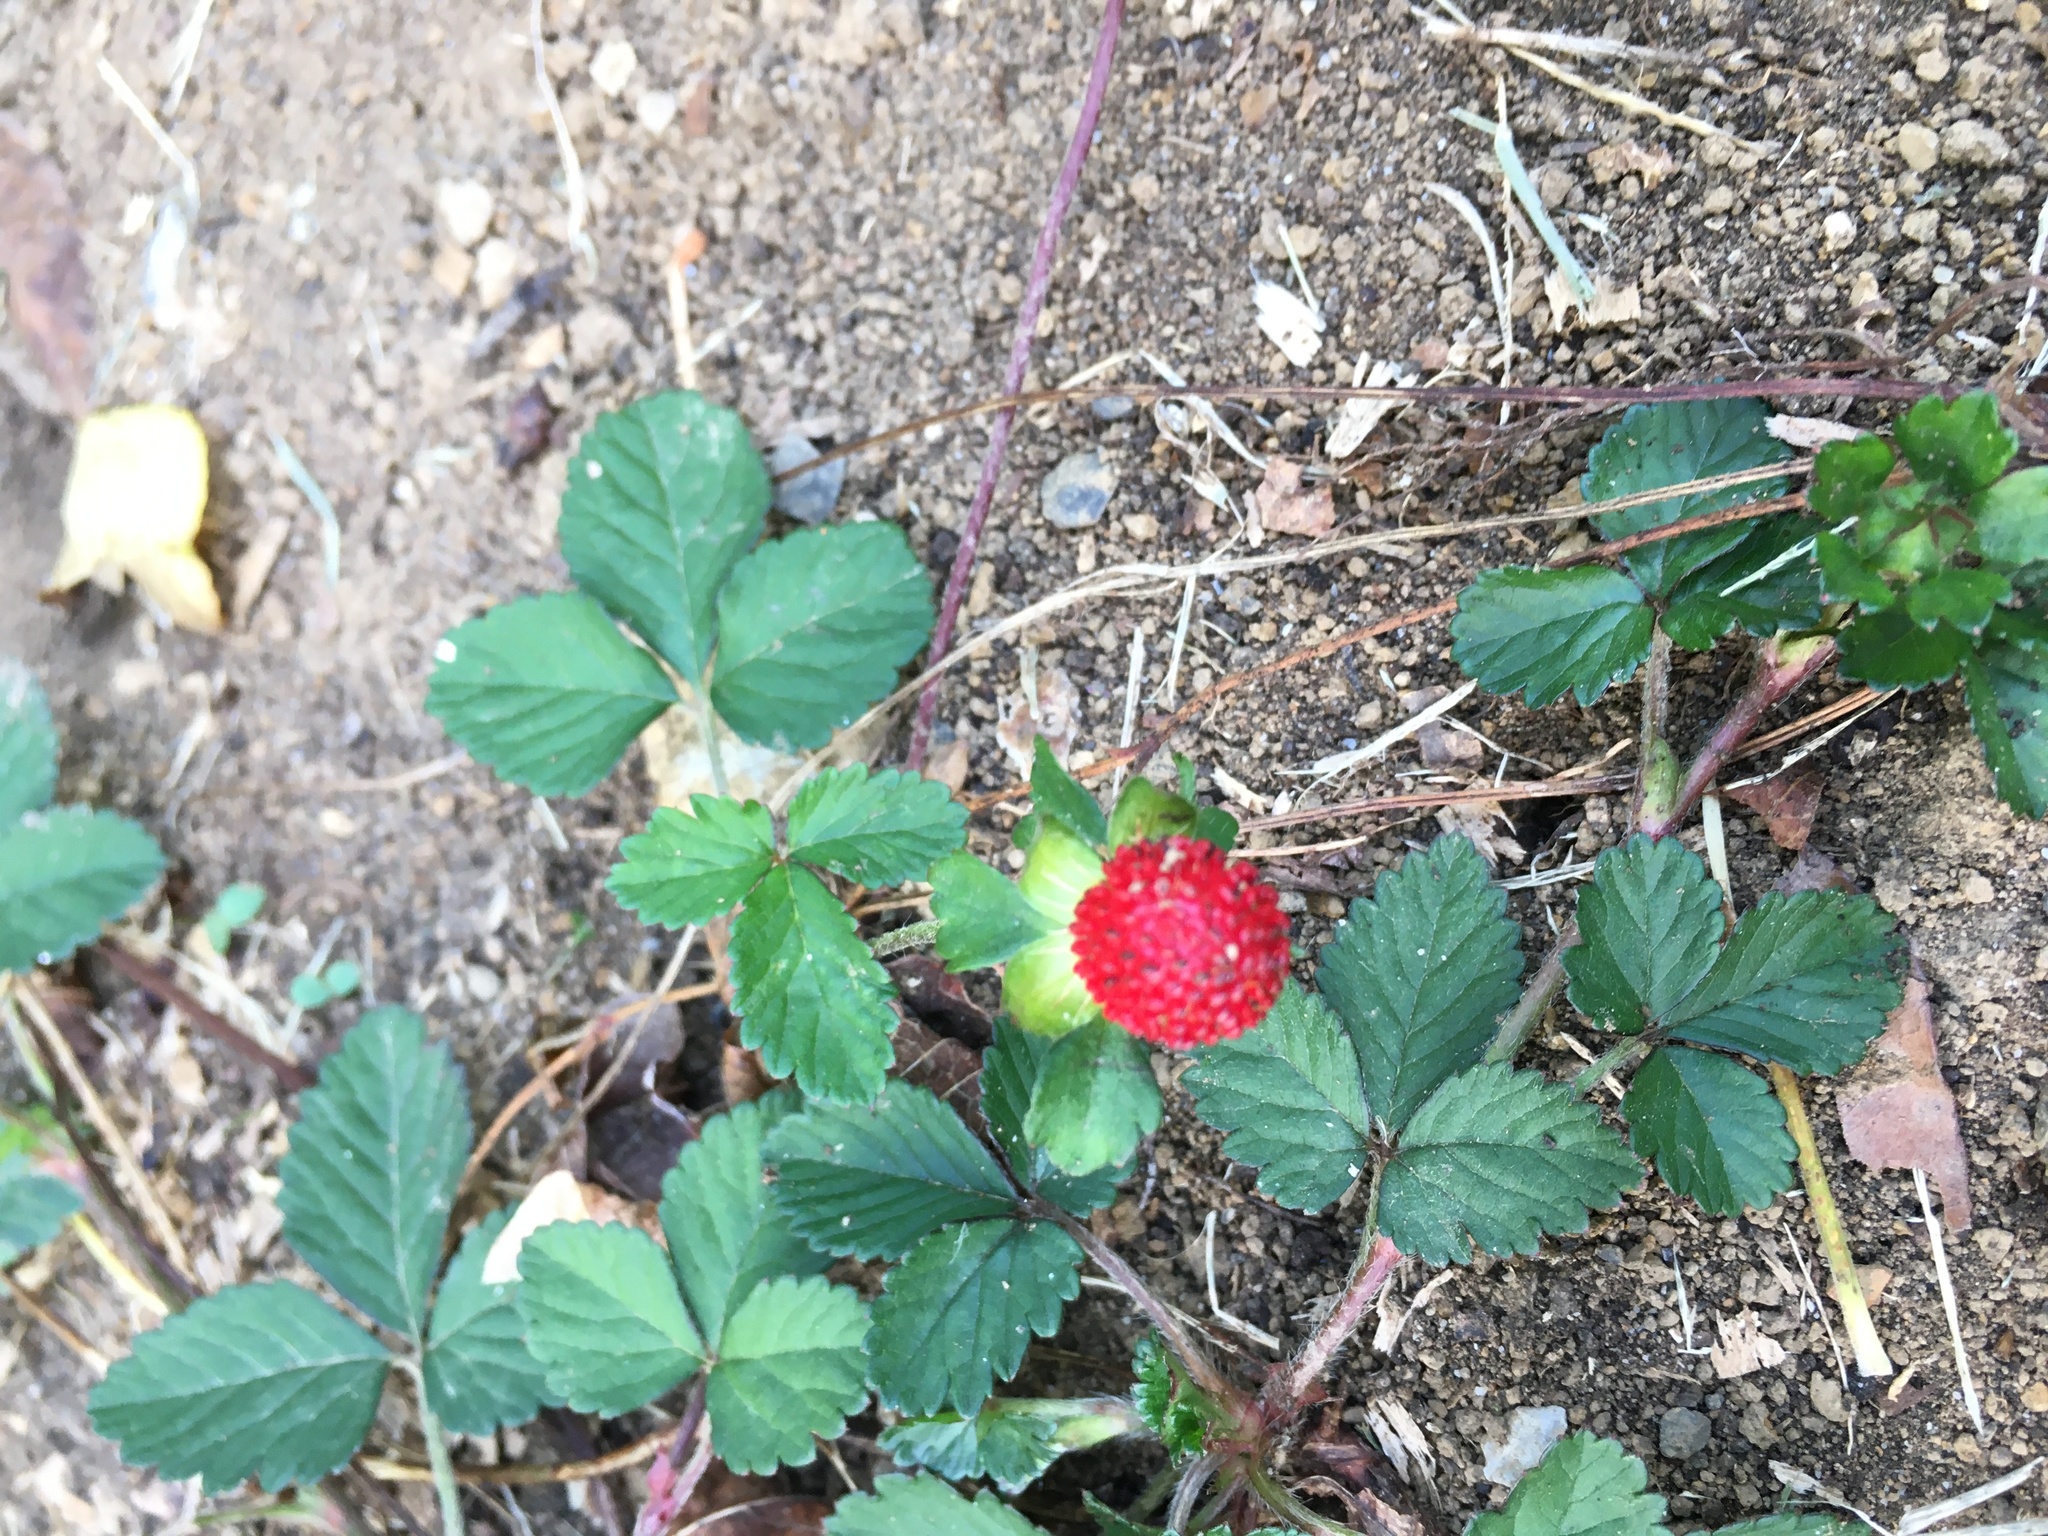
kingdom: Plantae
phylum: Tracheophyta
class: Magnoliopsida
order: Rosales
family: Rosaceae
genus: Potentilla
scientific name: Potentilla indica
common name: Yellow-flowered strawberry
